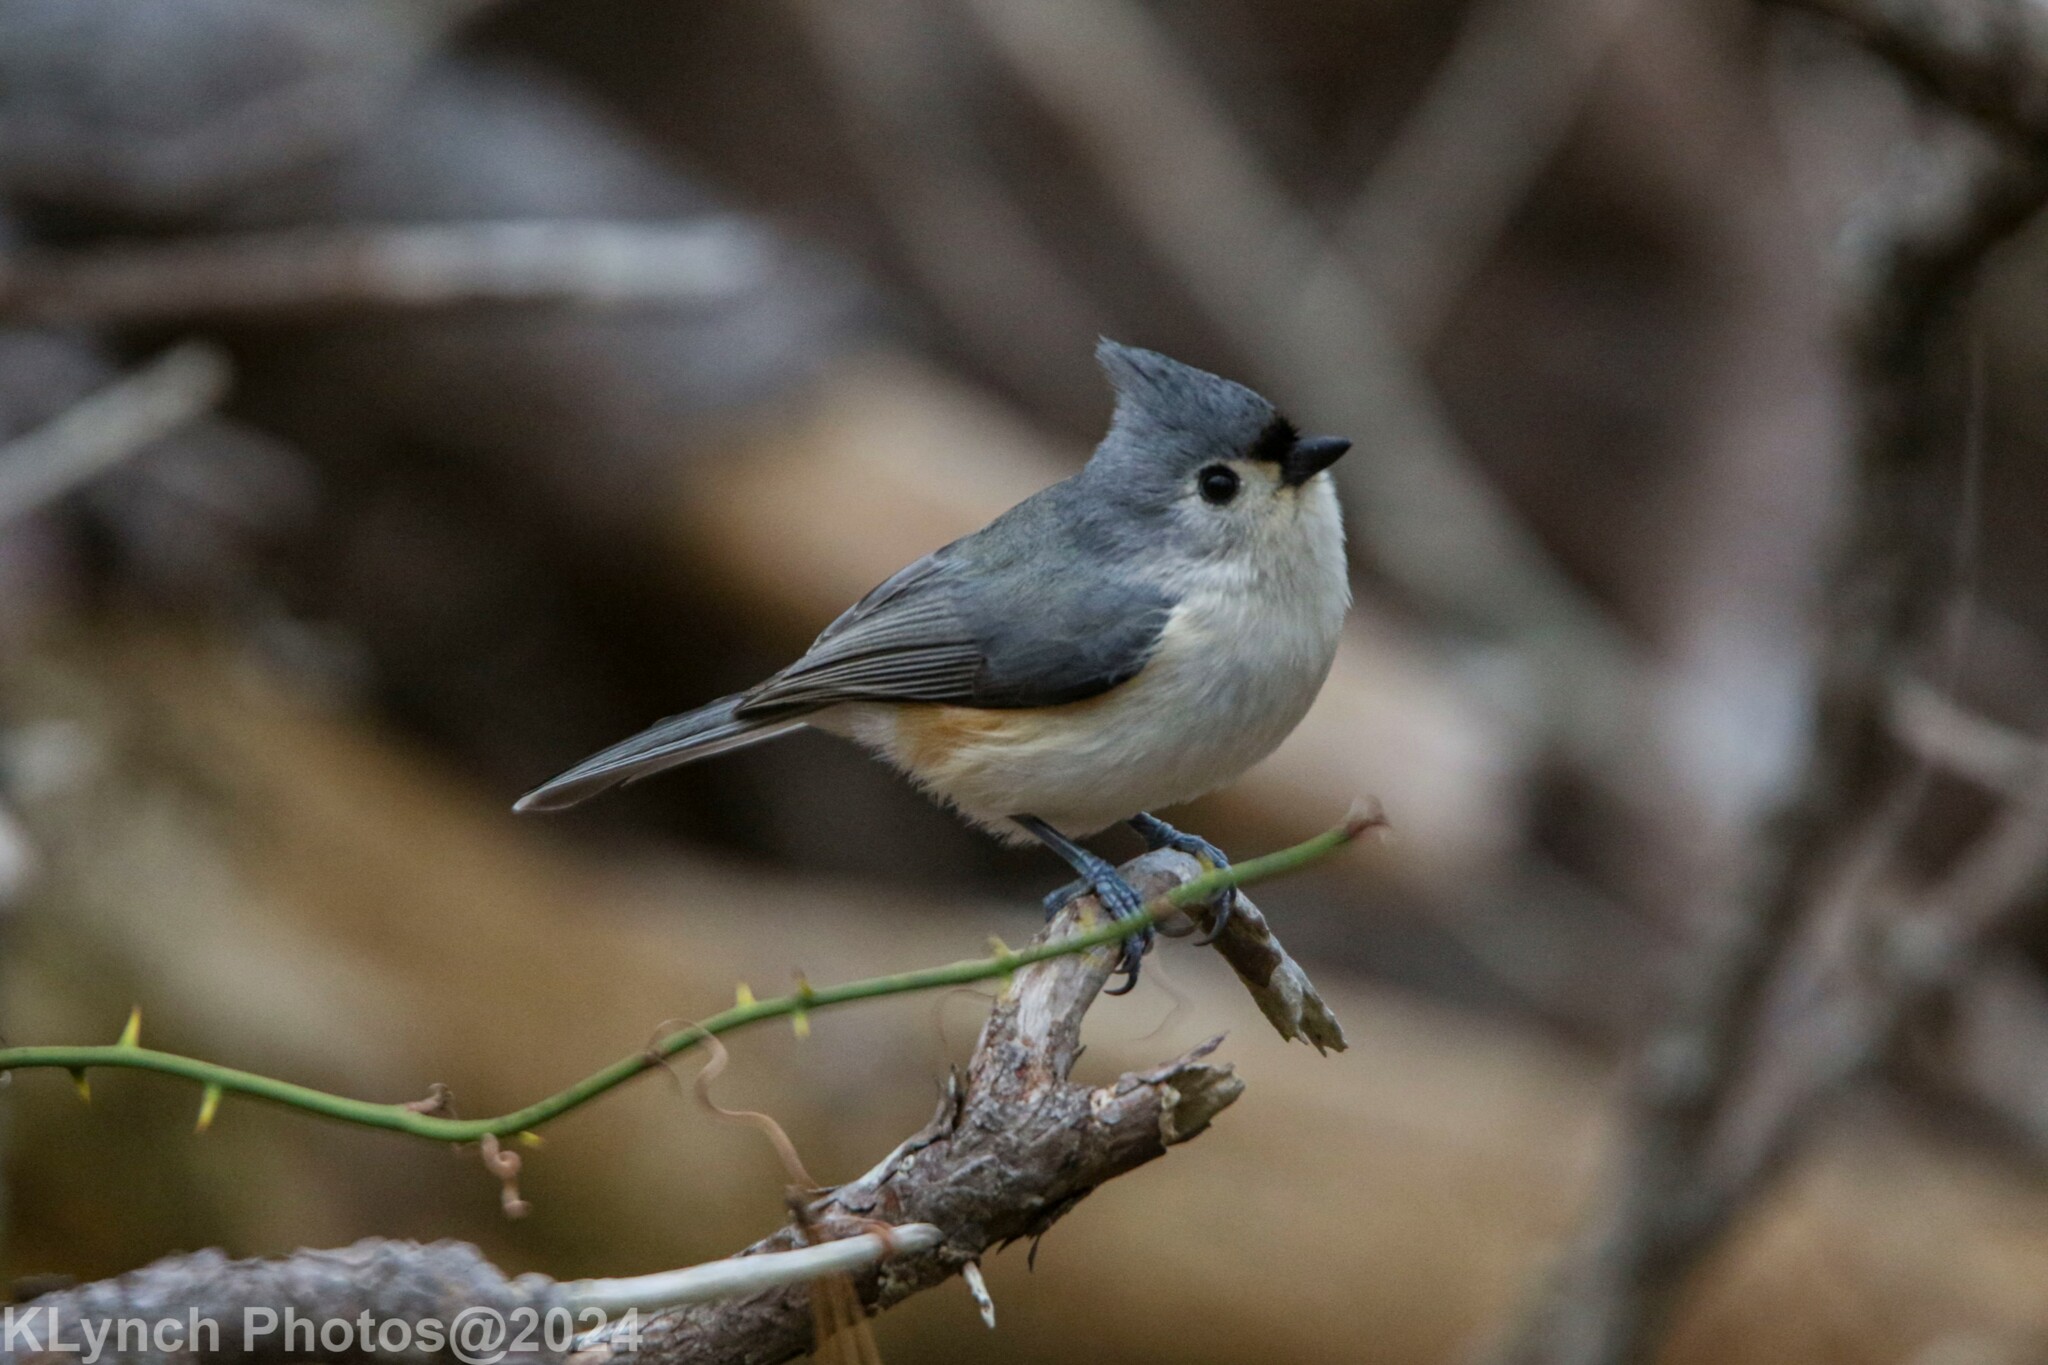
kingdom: Animalia
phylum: Chordata
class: Aves
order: Passeriformes
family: Paridae
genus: Baeolophus
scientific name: Baeolophus bicolor
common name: Tufted titmouse
